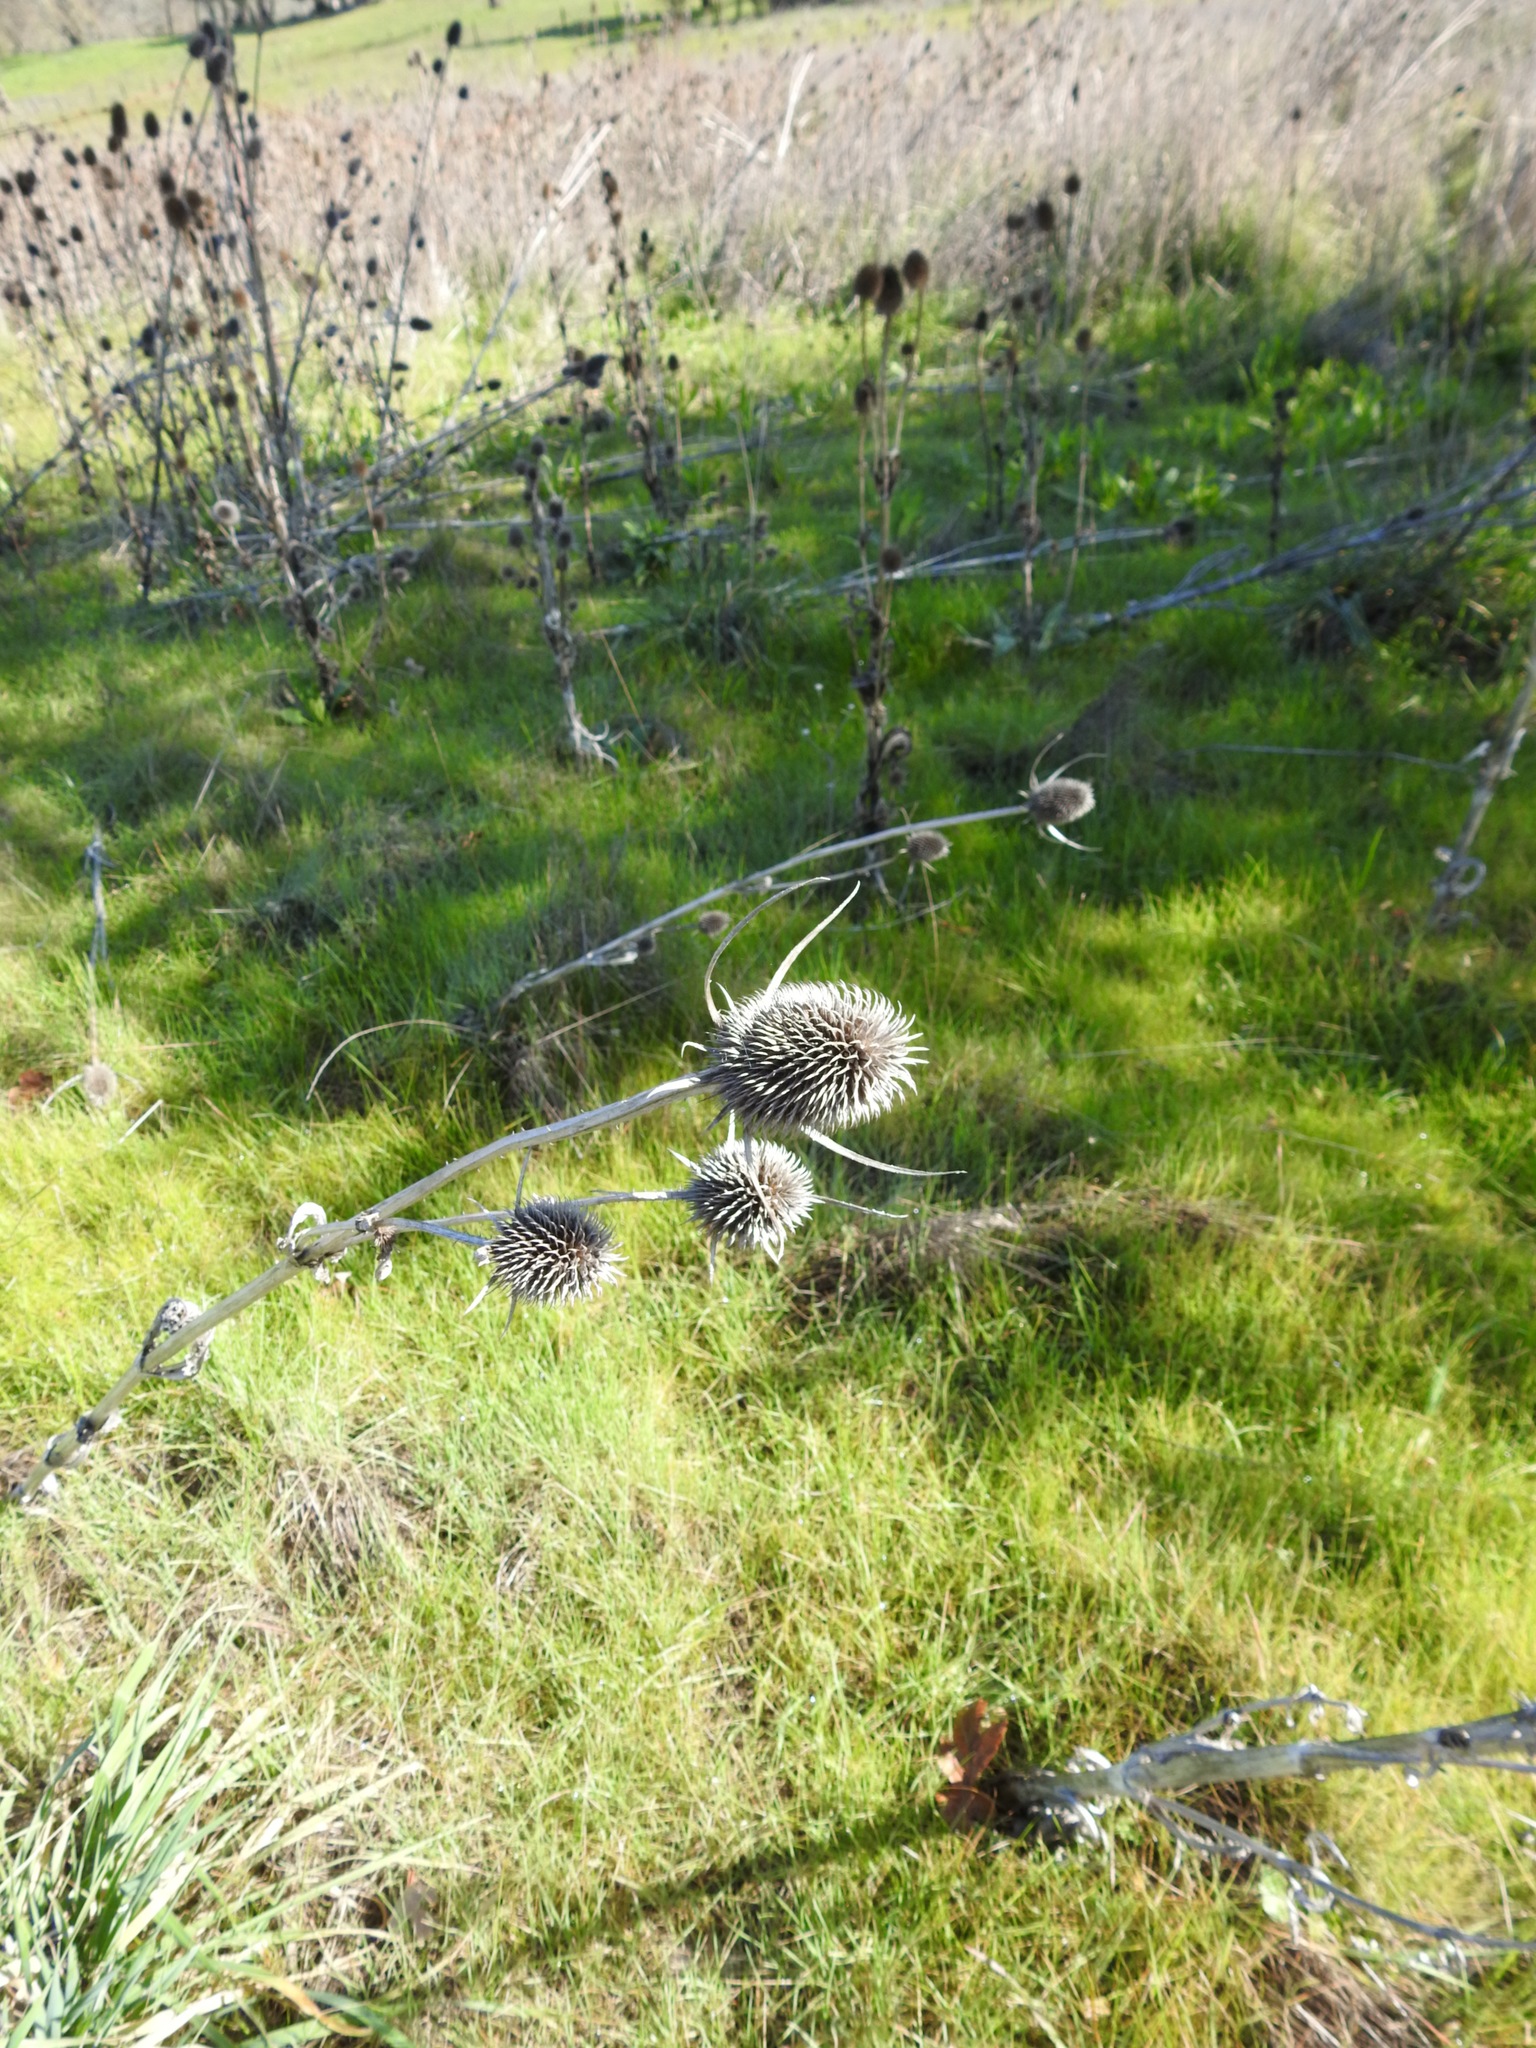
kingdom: Plantae
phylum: Tracheophyta
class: Magnoliopsida
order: Dipsacales
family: Caprifoliaceae
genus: Dipsacus
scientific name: Dipsacus sativus
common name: Fuller's teasel
